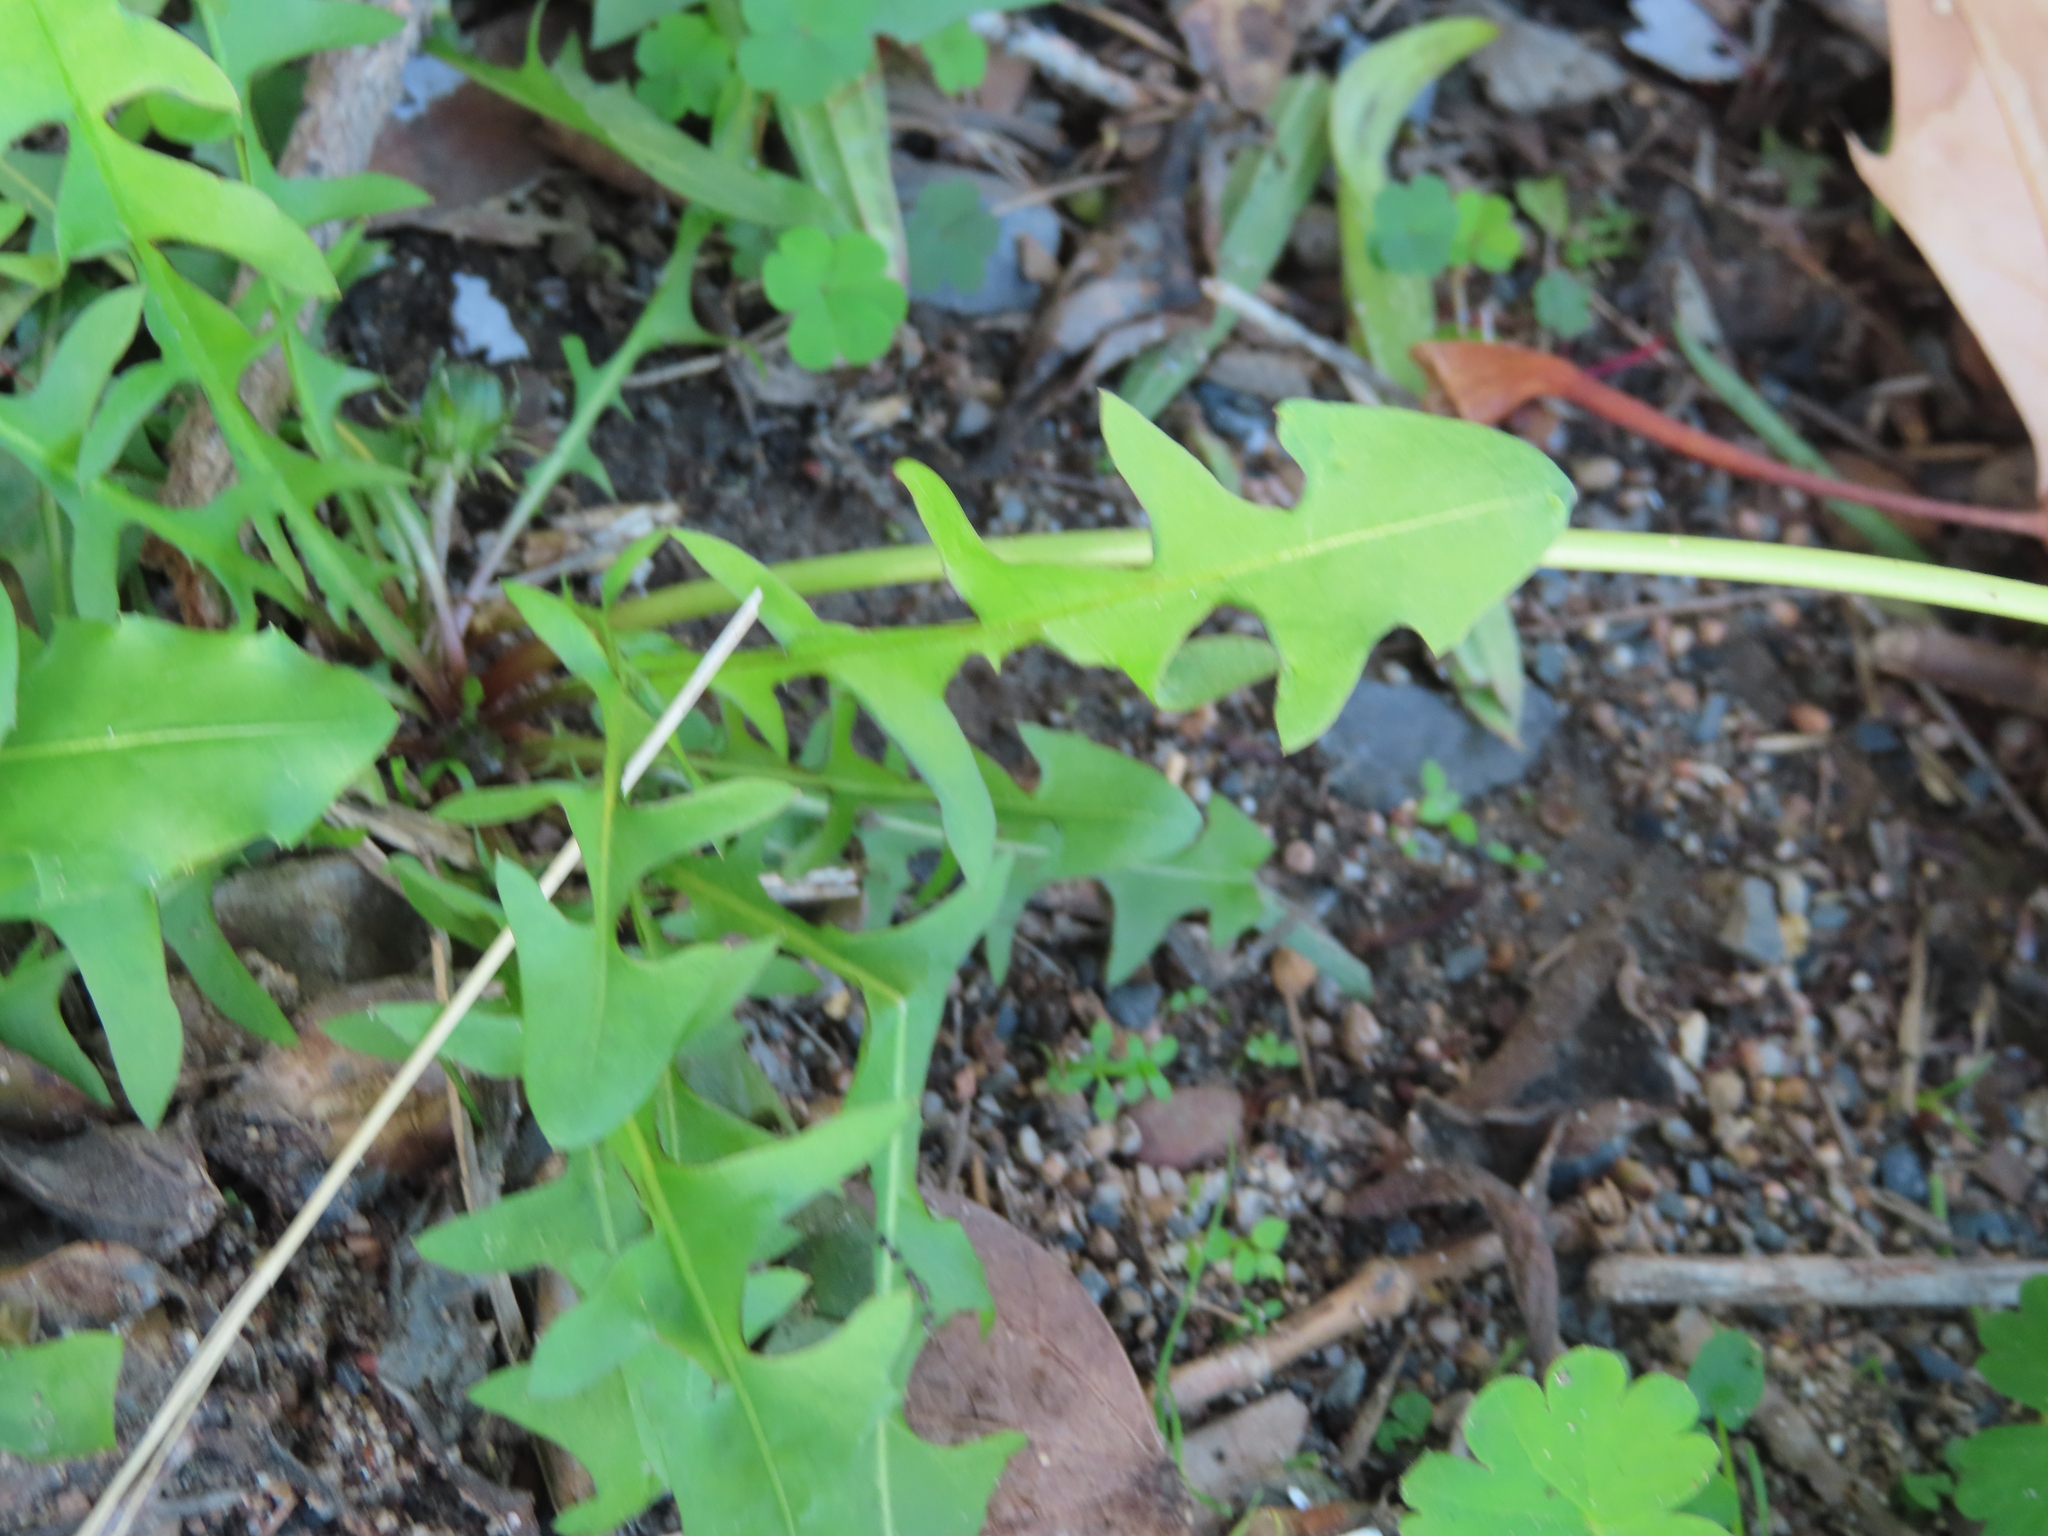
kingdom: Plantae
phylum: Tracheophyta
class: Magnoliopsida
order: Asterales
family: Asteraceae
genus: Taraxacum
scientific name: Taraxacum officinale
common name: Common dandelion
